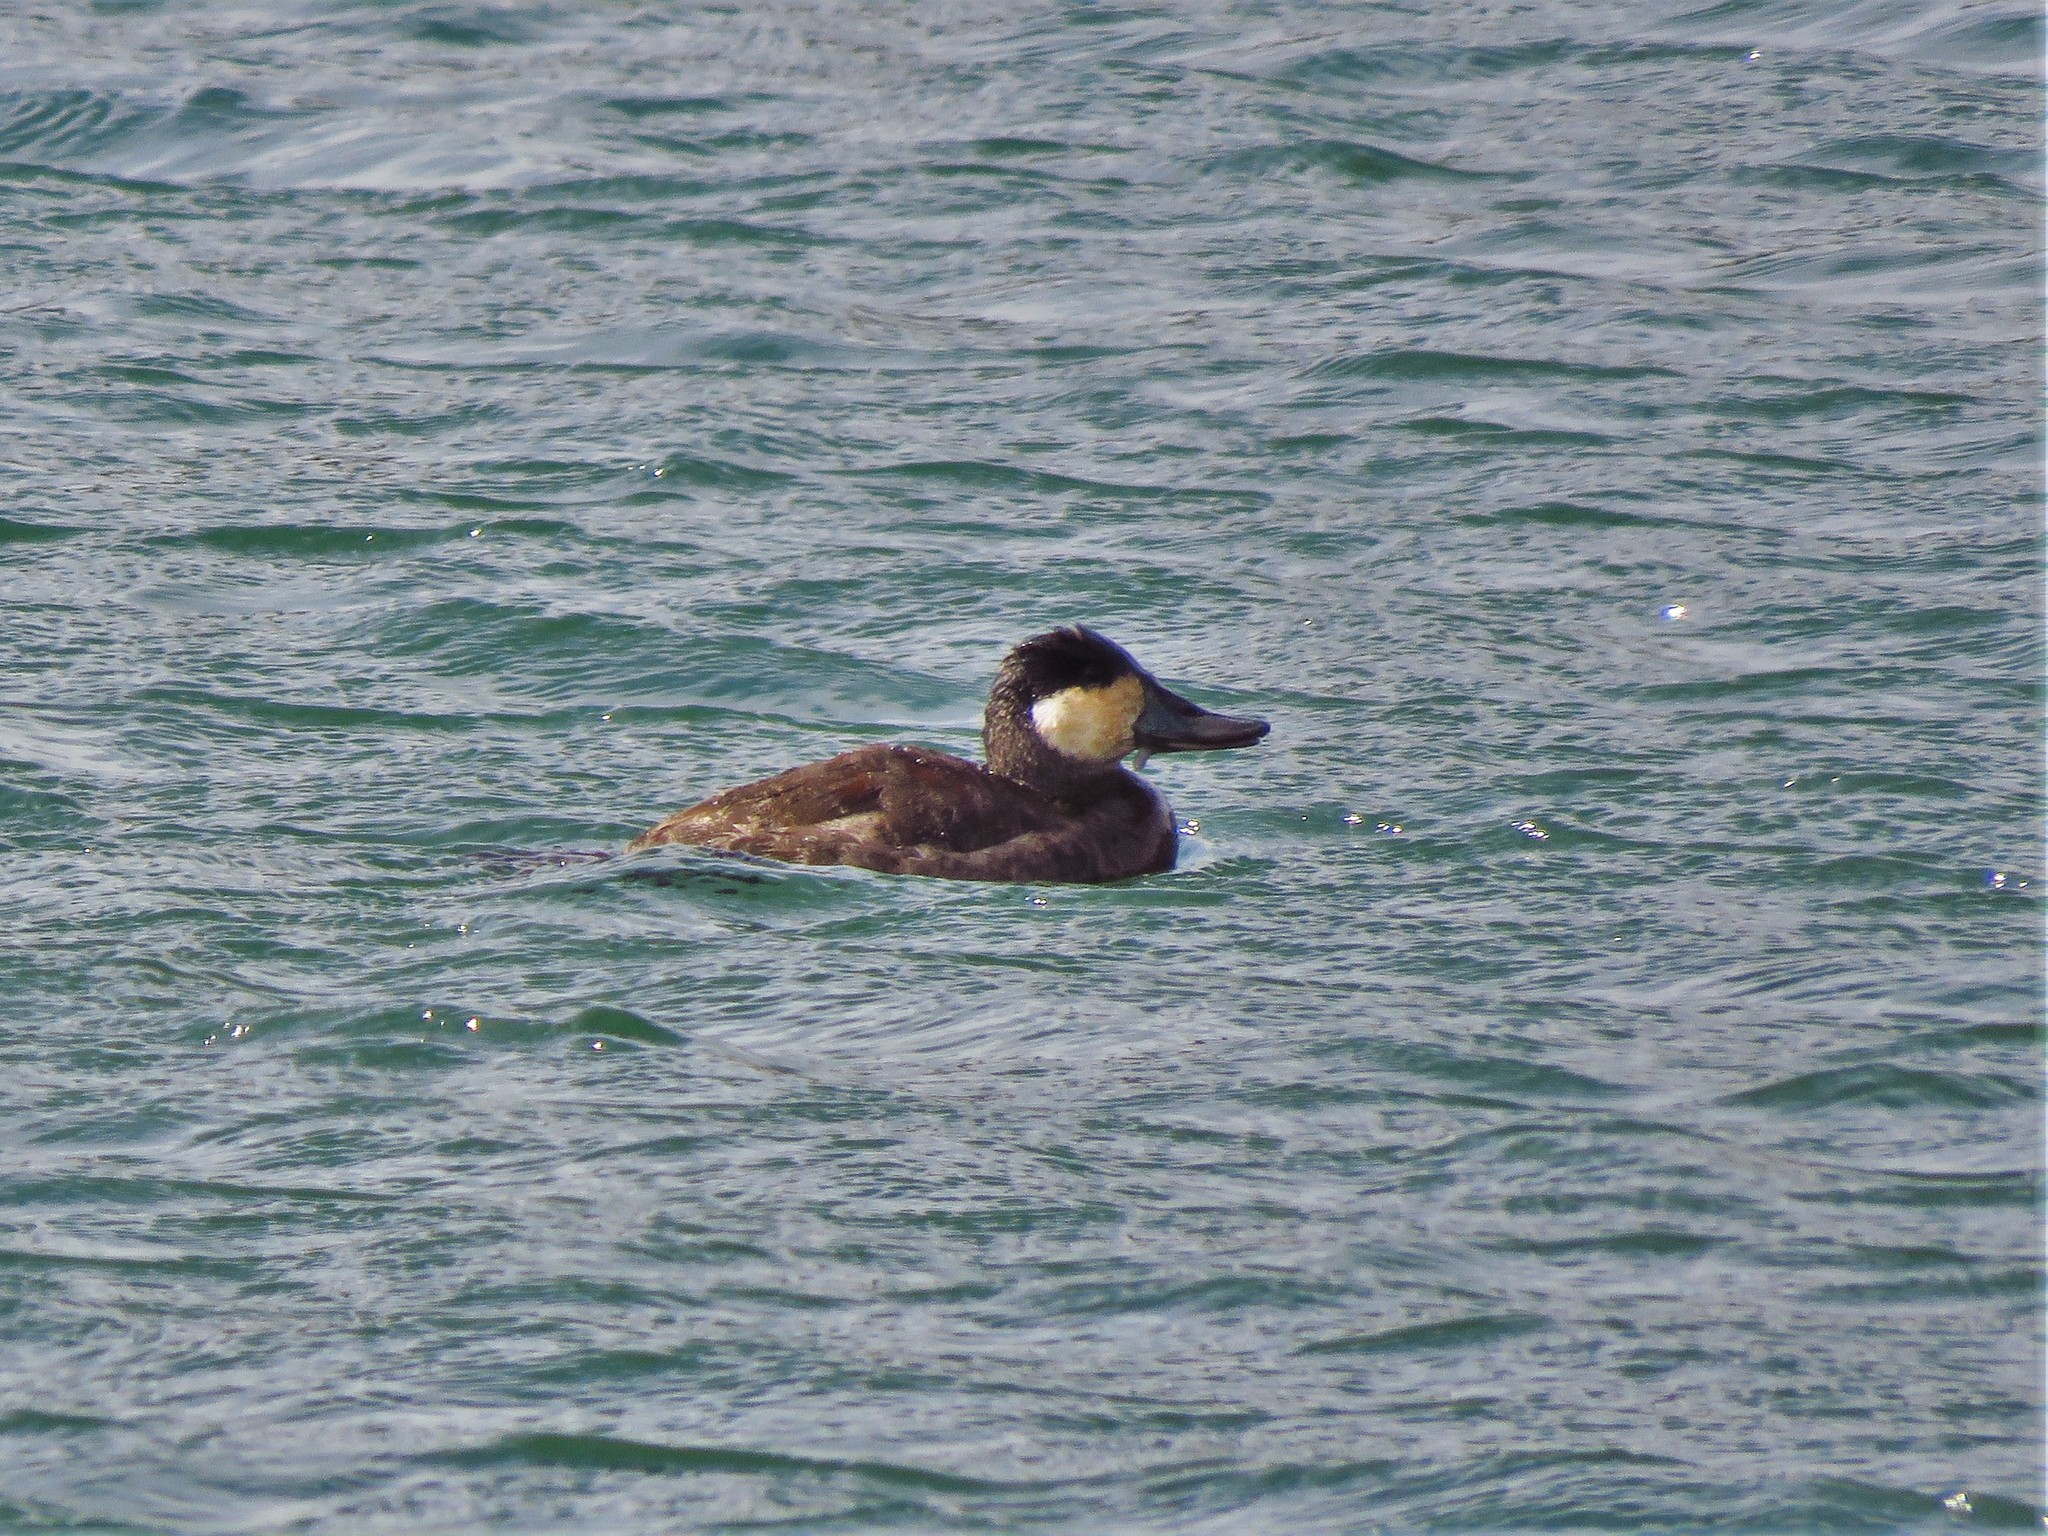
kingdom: Animalia
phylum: Chordata
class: Aves
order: Anseriformes
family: Anatidae
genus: Oxyura
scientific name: Oxyura jamaicensis
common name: Ruddy duck
